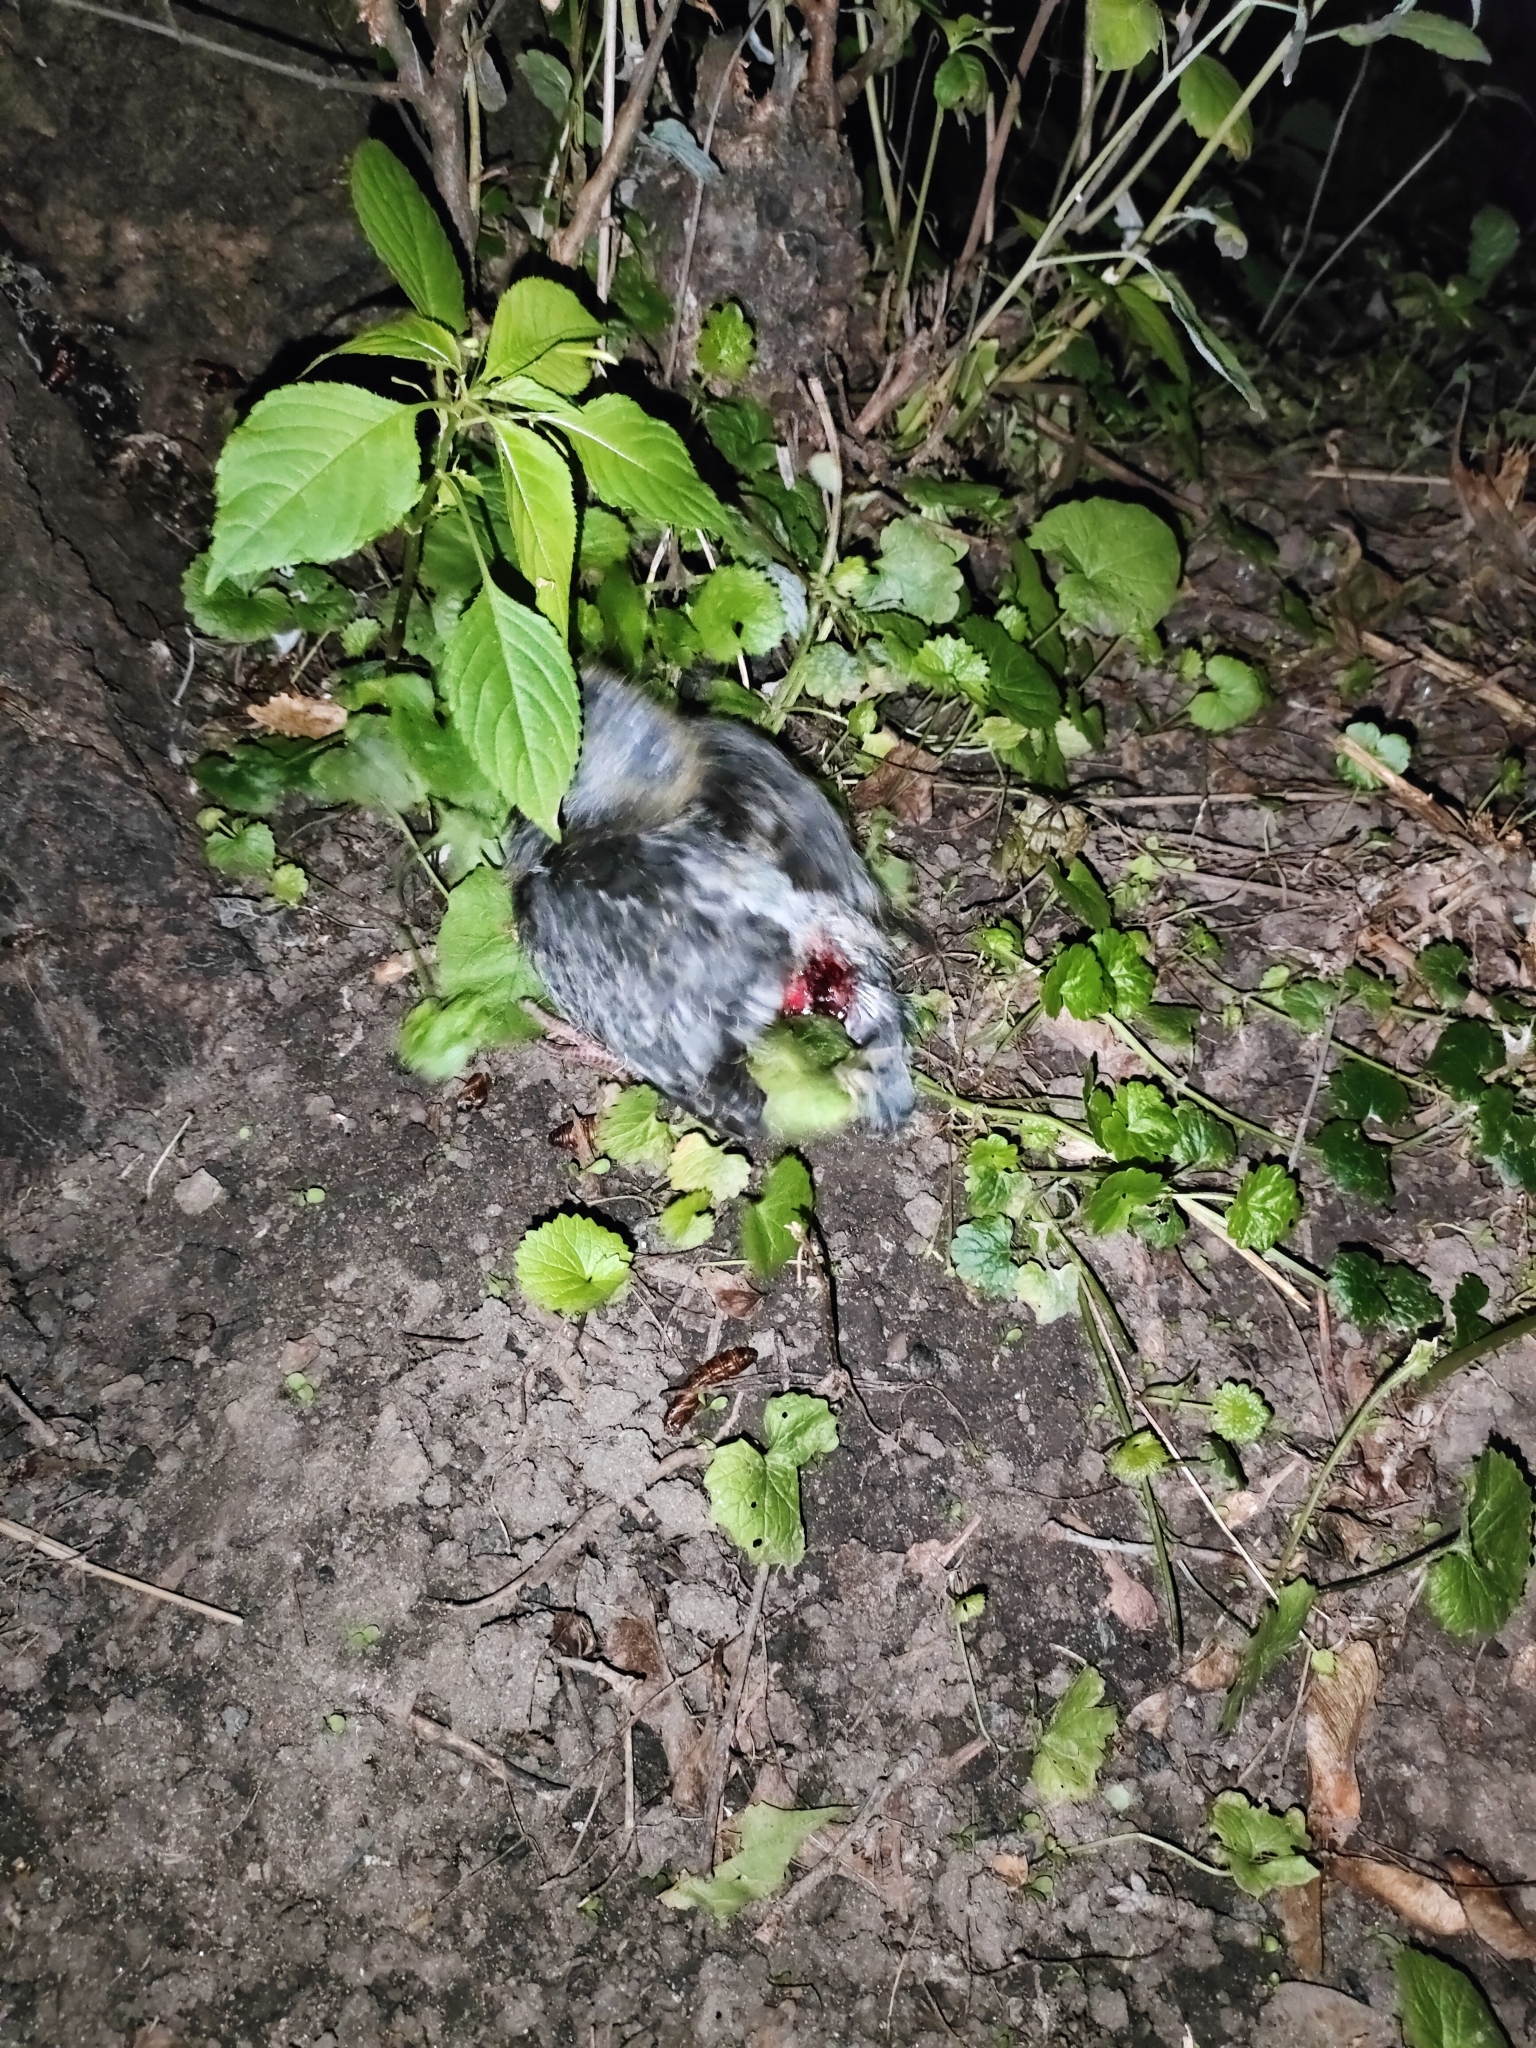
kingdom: Animalia
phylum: Chordata
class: Aves
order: Columbiformes
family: Columbidae
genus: Columba
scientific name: Columba livia
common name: Rock pigeon
